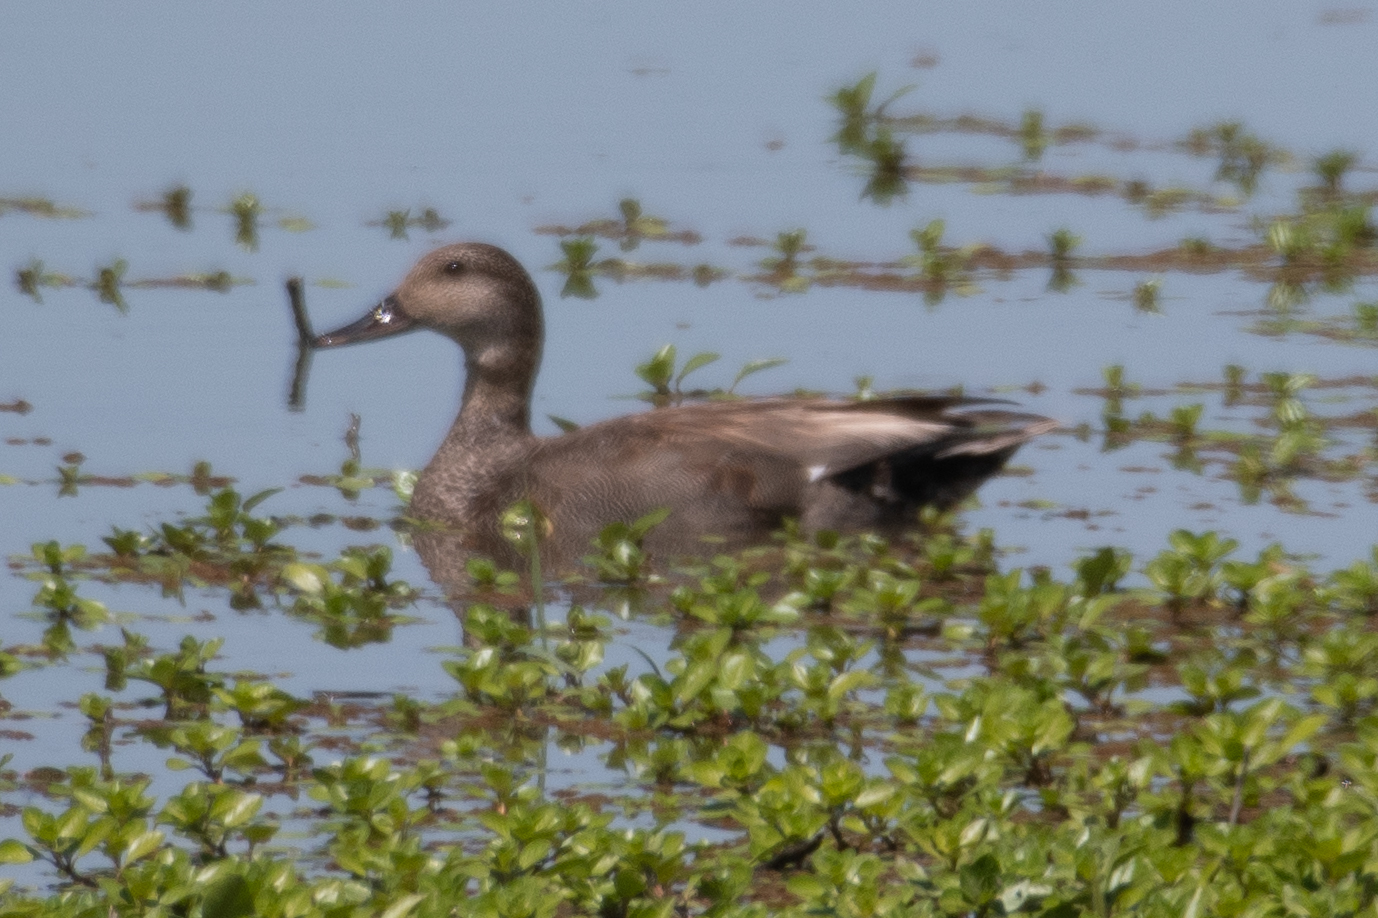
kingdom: Animalia
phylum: Chordata
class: Aves
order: Anseriformes
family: Anatidae
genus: Mareca
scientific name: Mareca strepera
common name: Gadwall
